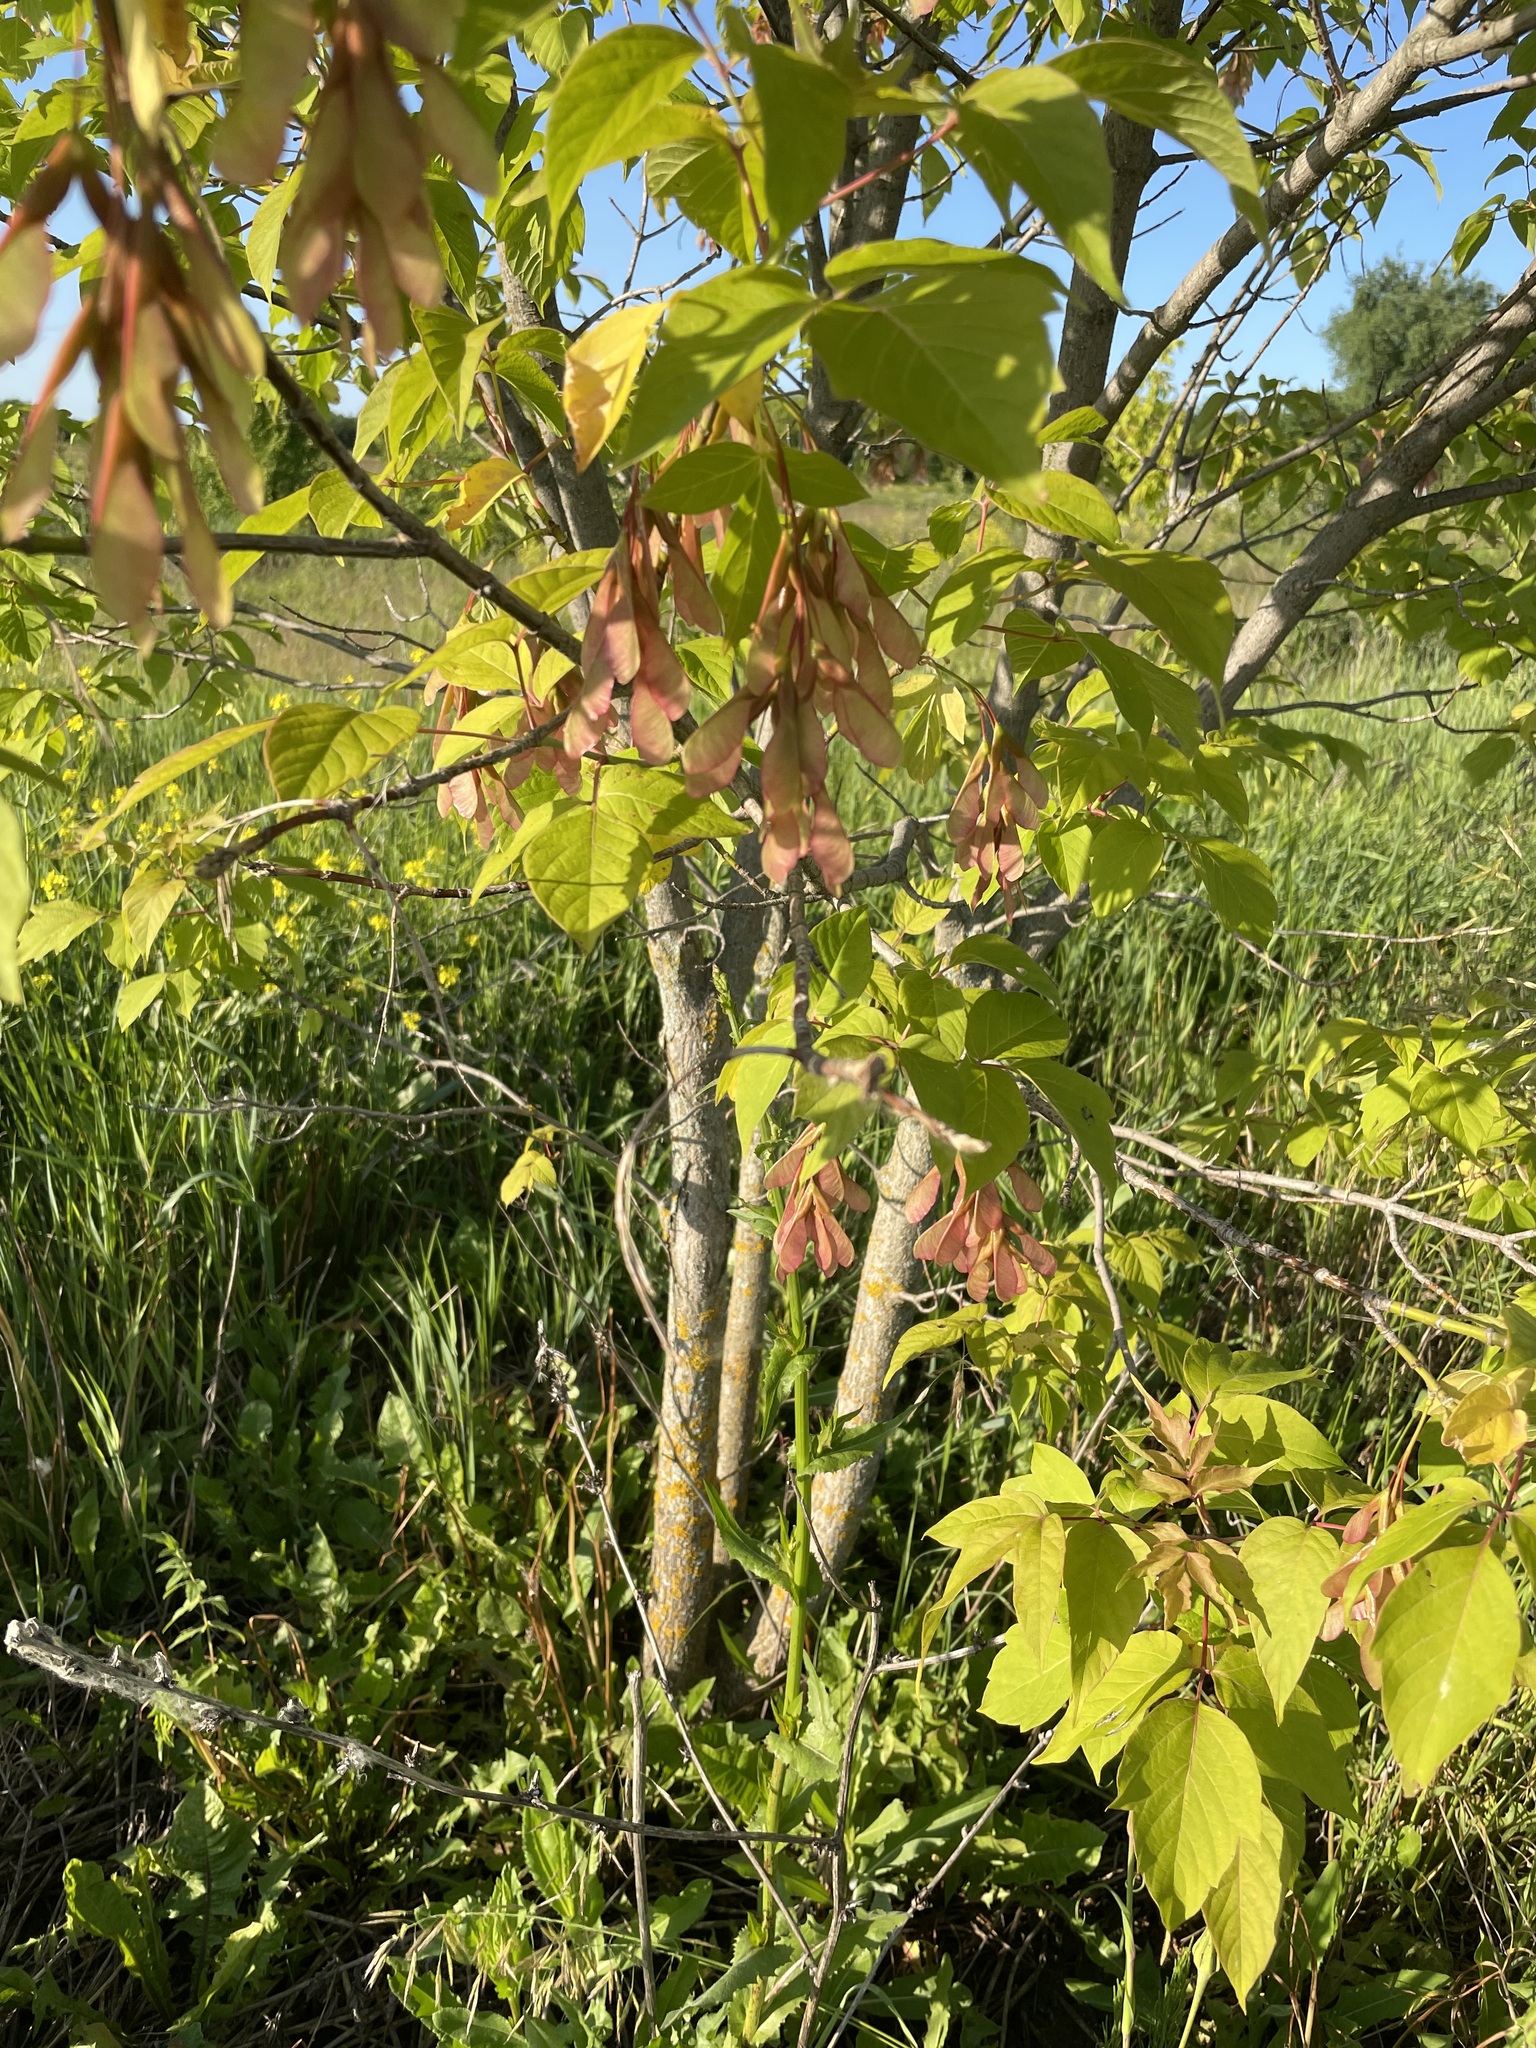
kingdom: Plantae
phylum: Tracheophyta
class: Magnoliopsida
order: Sapindales
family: Sapindaceae
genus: Acer
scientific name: Acer negundo
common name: Ashleaf maple
